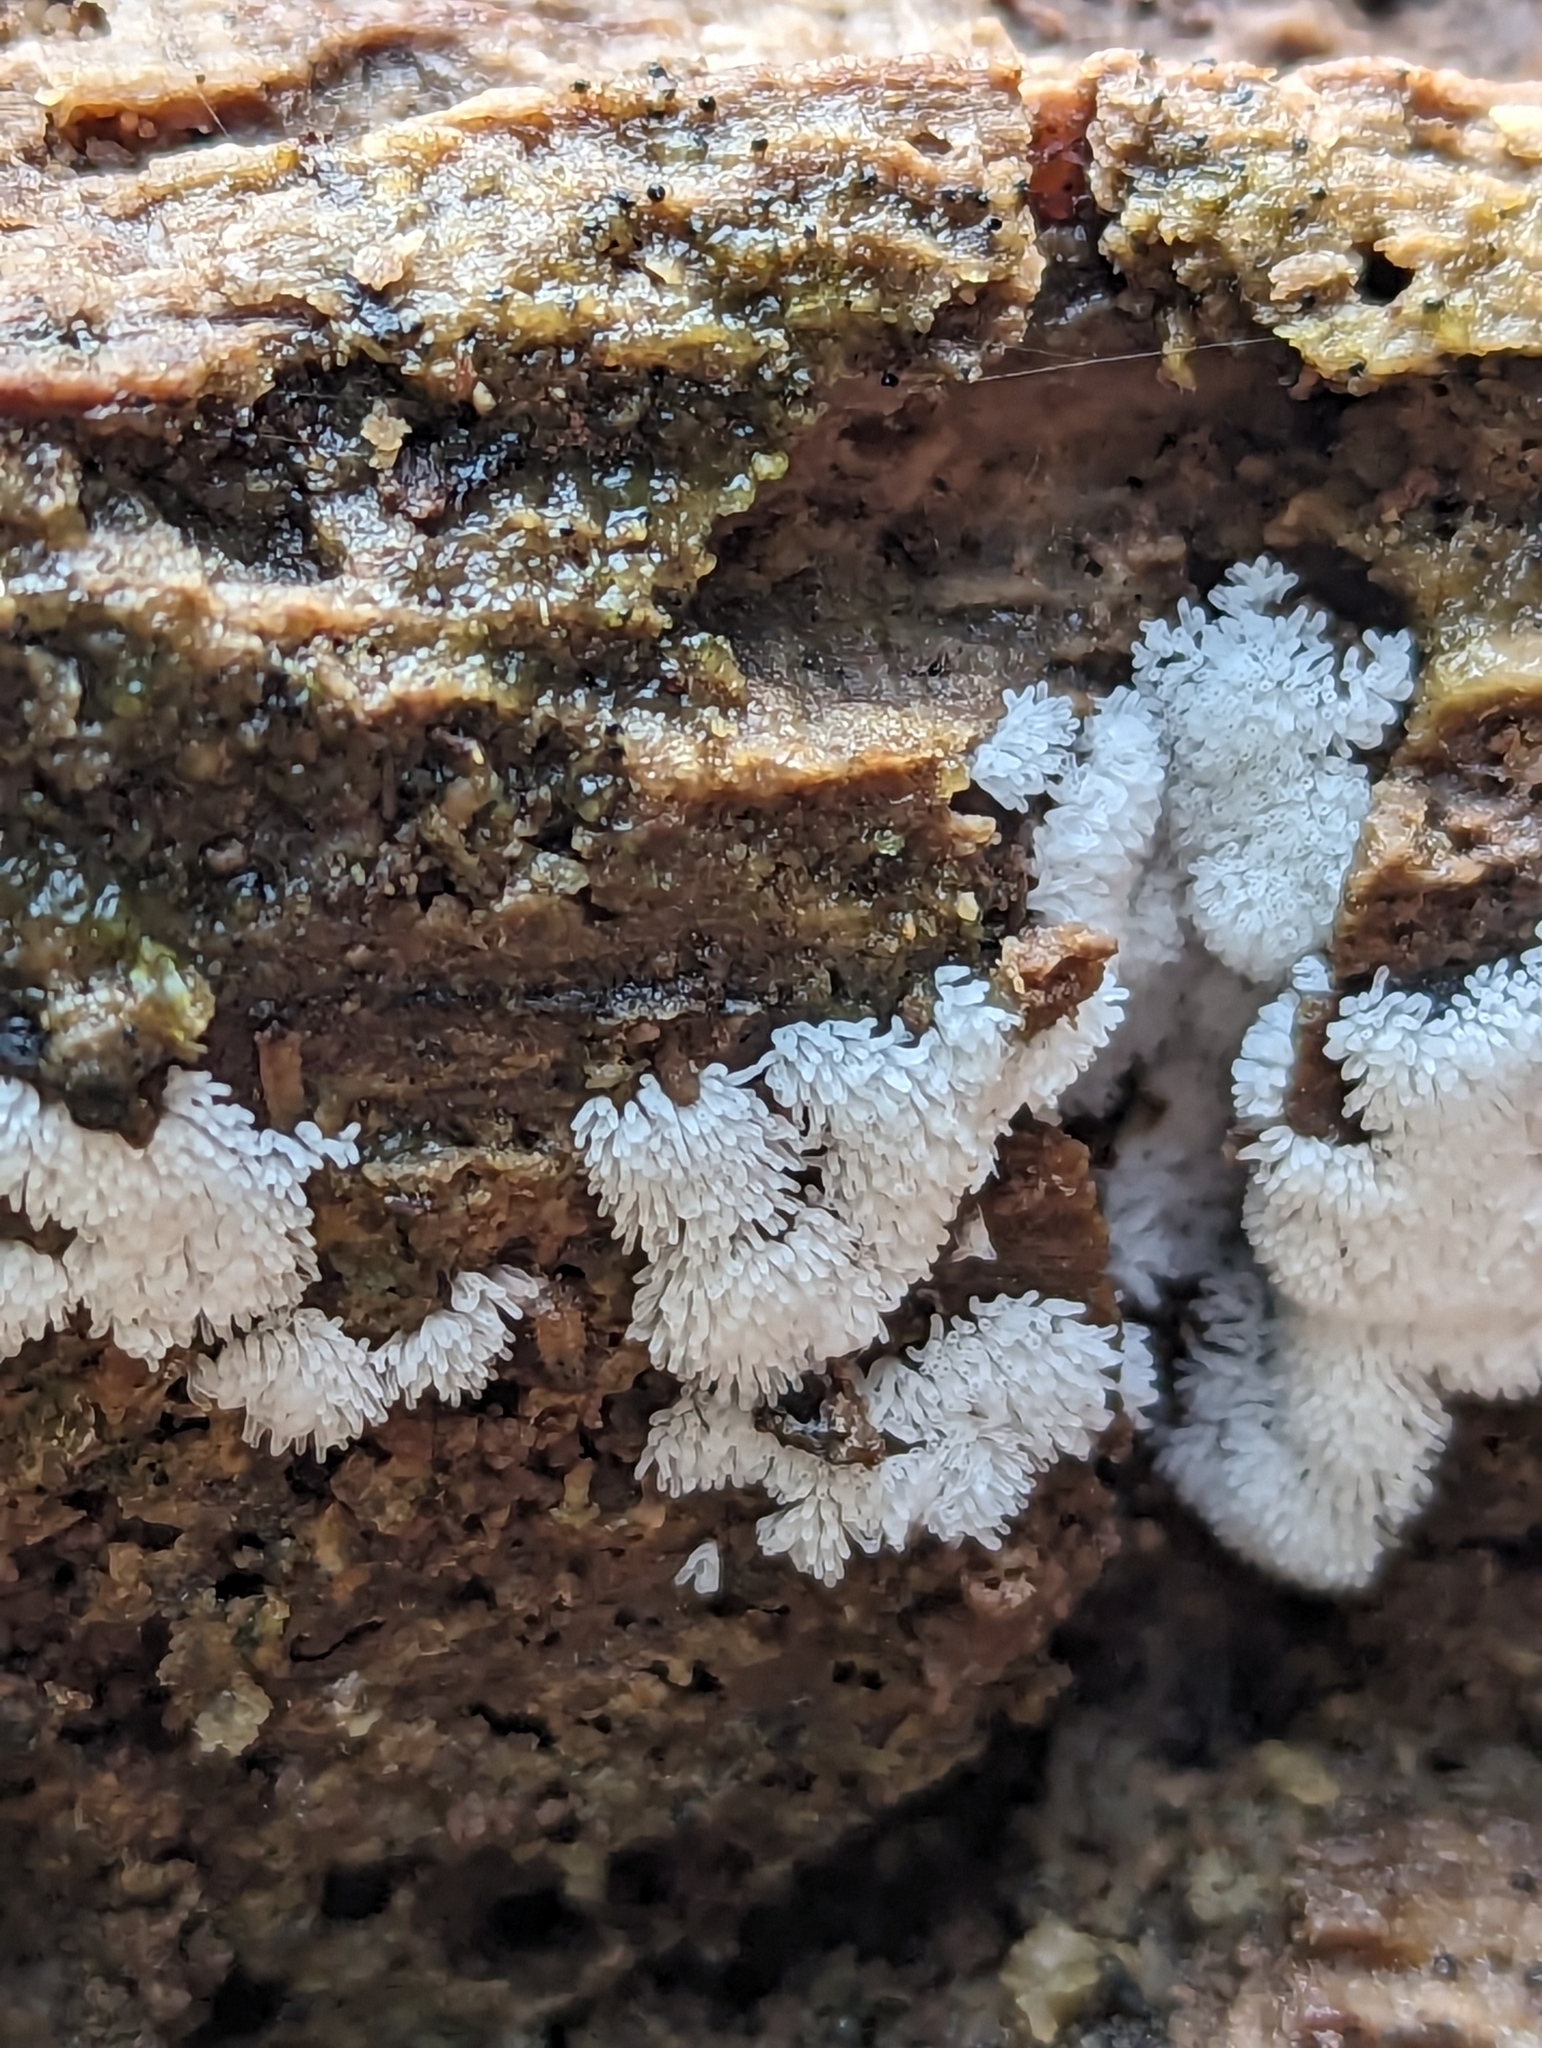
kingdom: Protozoa
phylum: Mycetozoa
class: Protosteliomycetes
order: Ceratiomyxales
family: Ceratiomyxaceae
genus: Ceratiomyxa
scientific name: Ceratiomyxa fruticulosa
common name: Honeycomb coral slime mold
